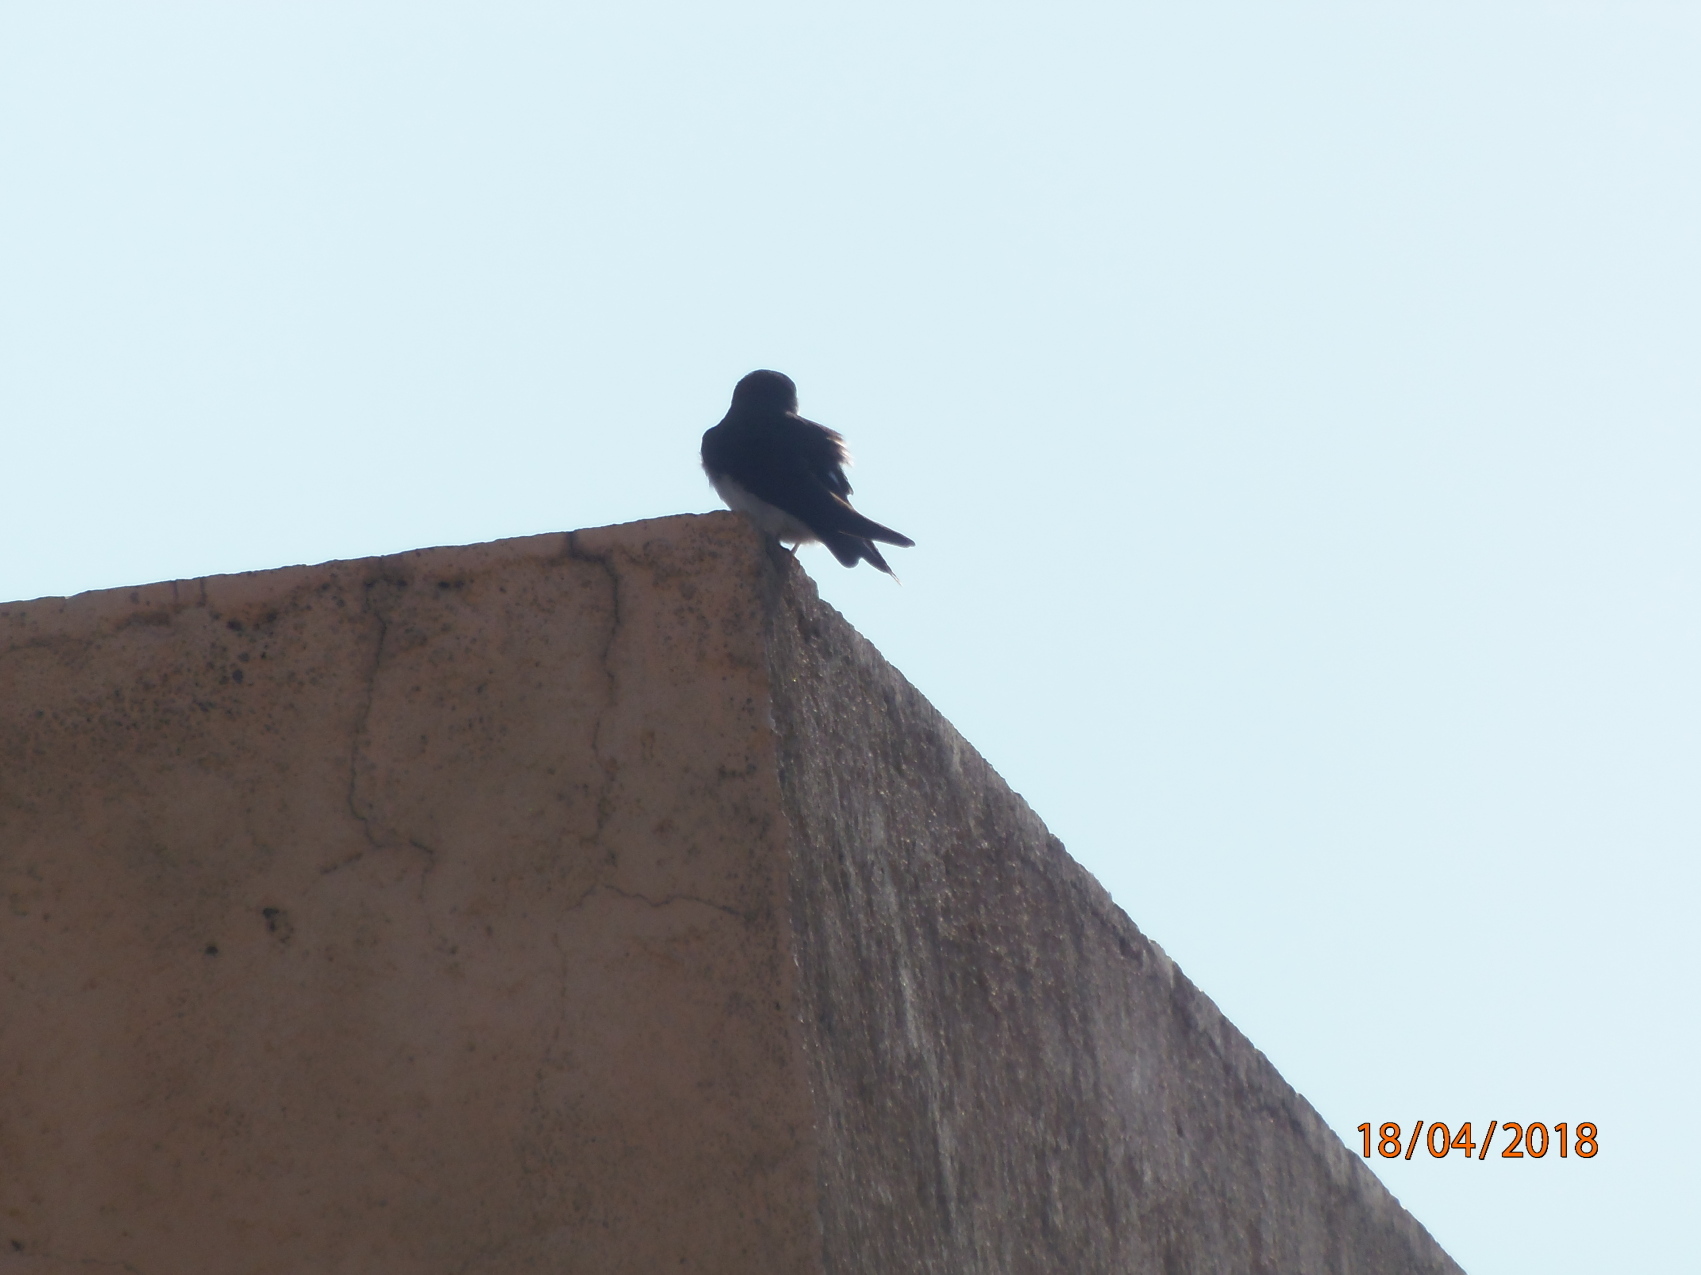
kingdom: Animalia
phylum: Chordata
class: Aves
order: Passeriformes
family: Hirundinidae
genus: Tachycineta
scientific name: Tachycineta thalassina
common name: Violet-green swallow
